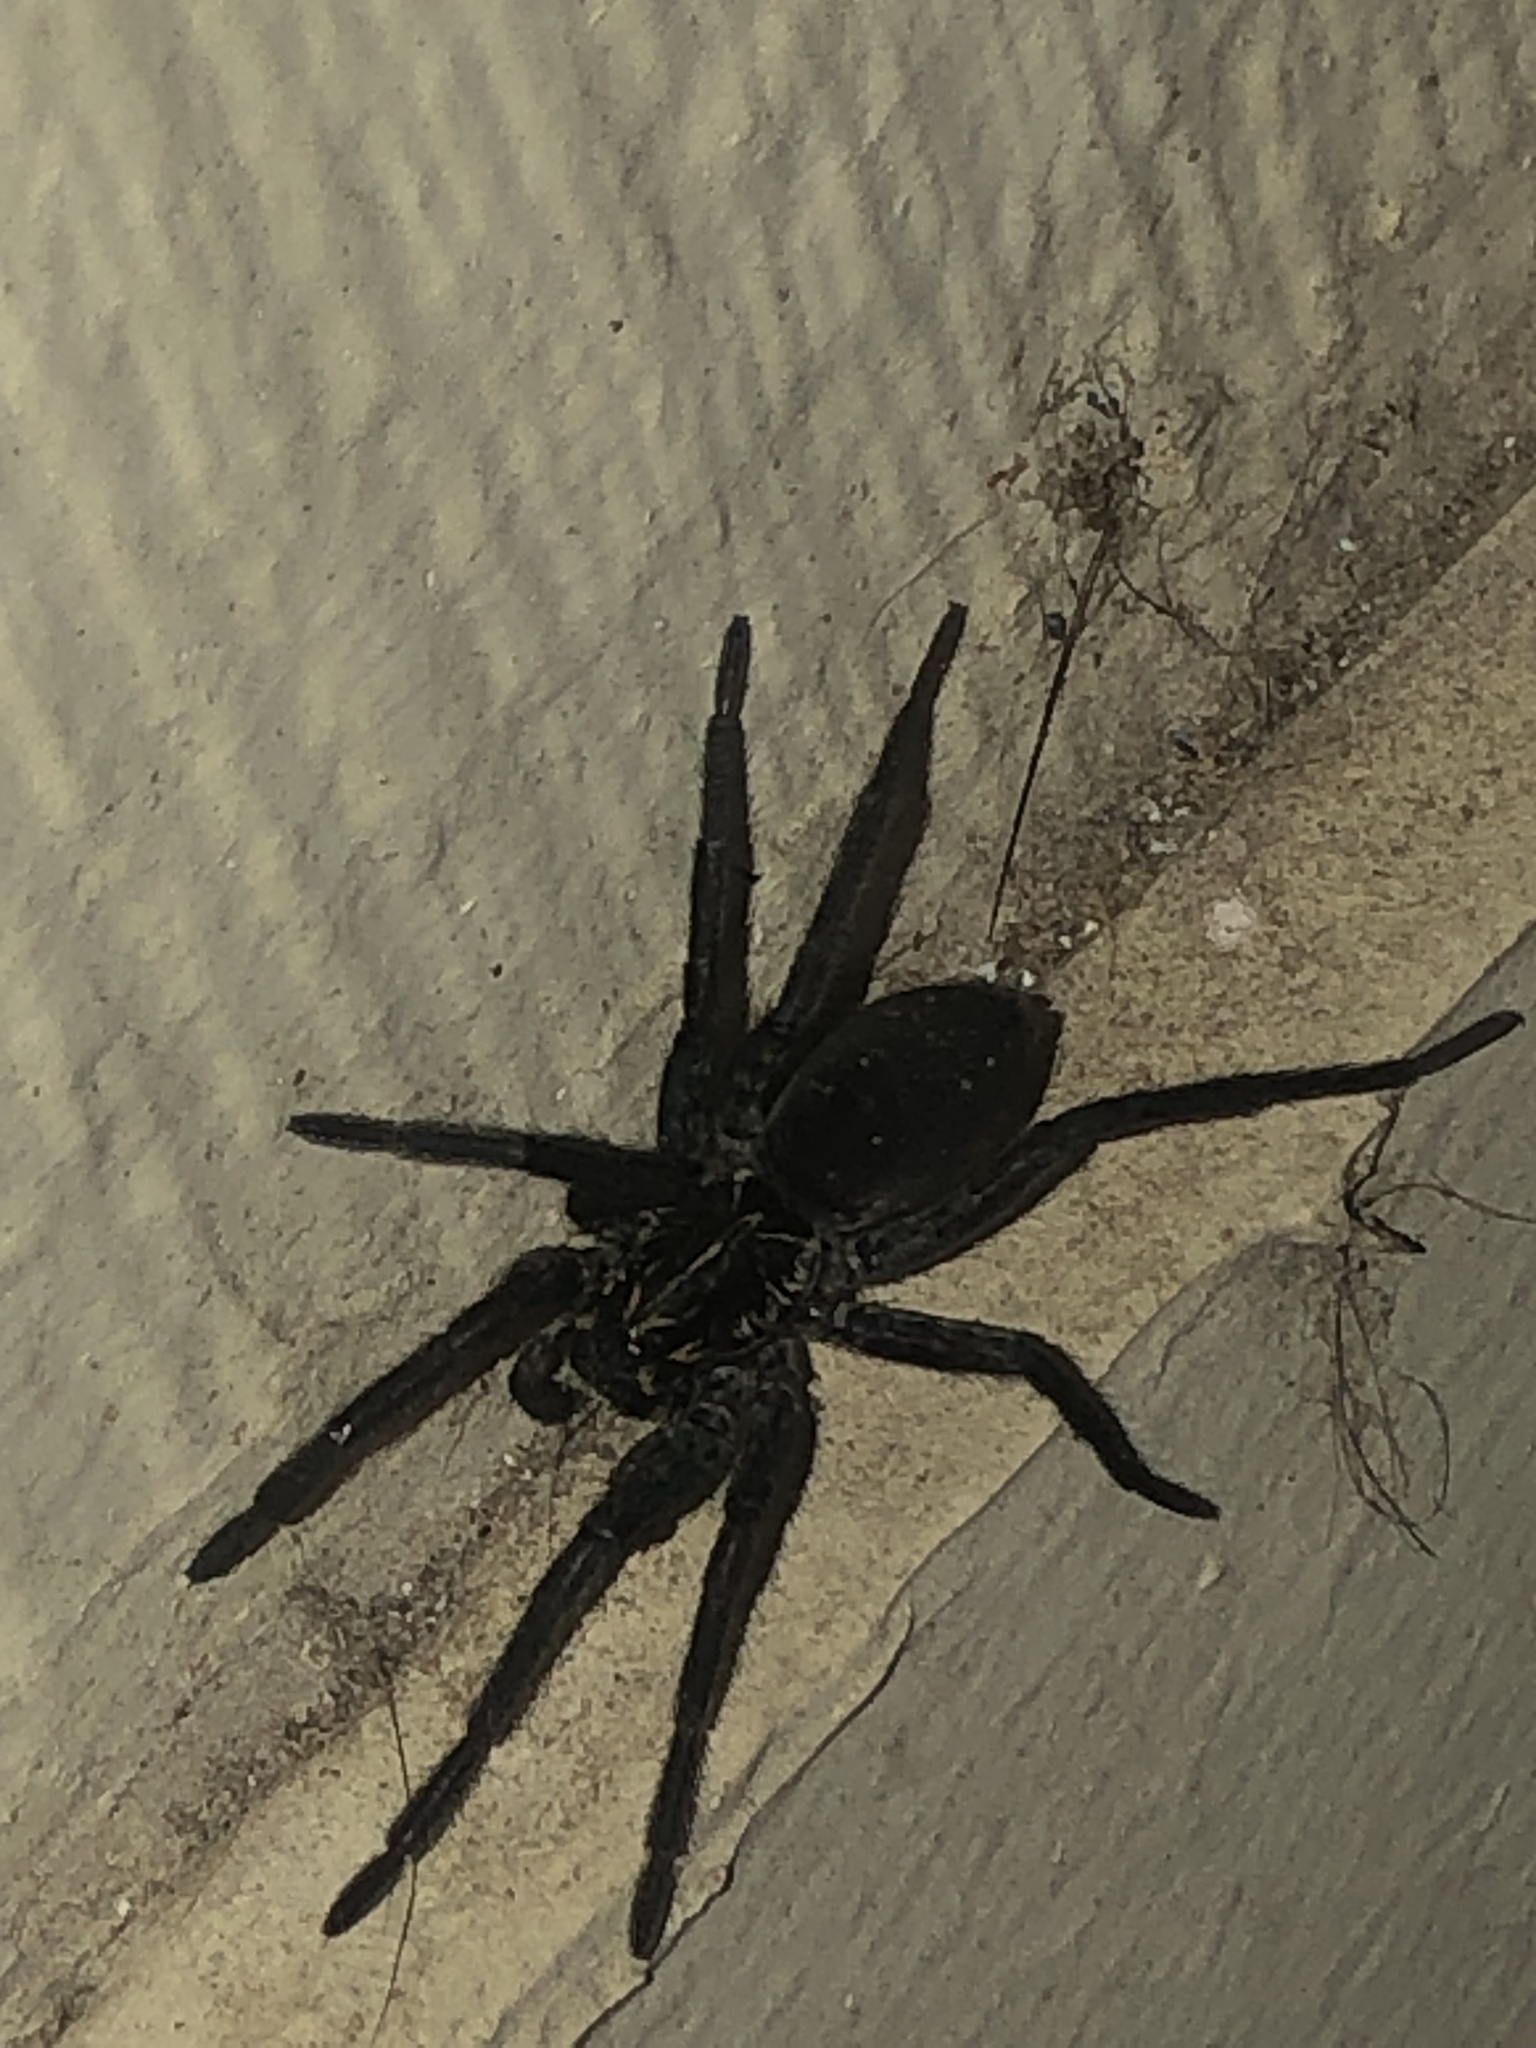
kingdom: Animalia
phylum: Arthropoda
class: Arachnida
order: Araneae
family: Lycosidae
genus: Sosippus
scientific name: Sosippus mimus
